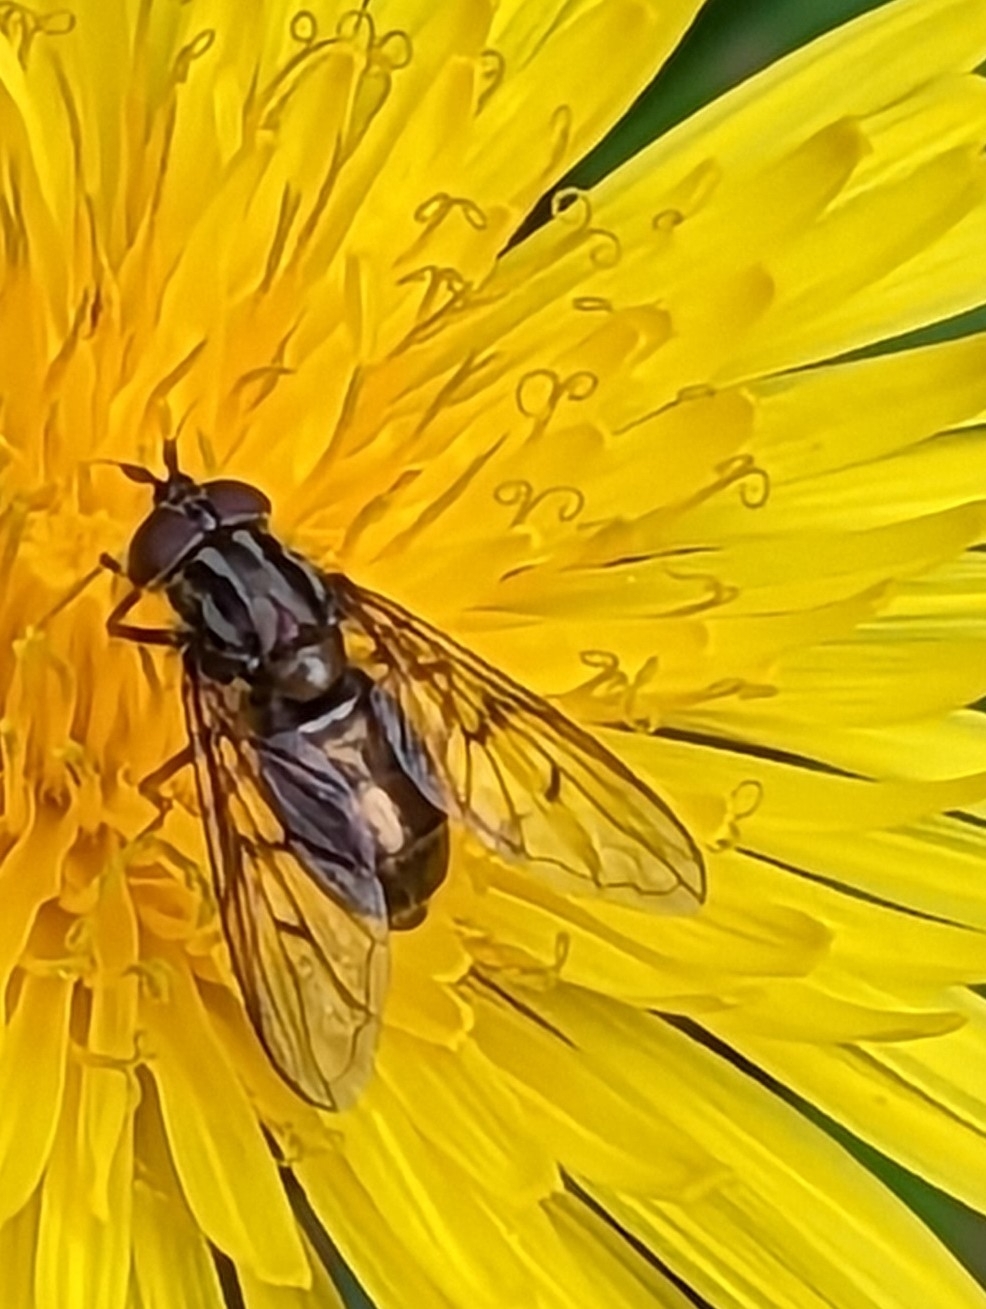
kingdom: Animalia
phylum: Arthropoda
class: Insecta
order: Diptera
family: Syrphidae
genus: Ferdinandea
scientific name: Ferdinandea cuprea
